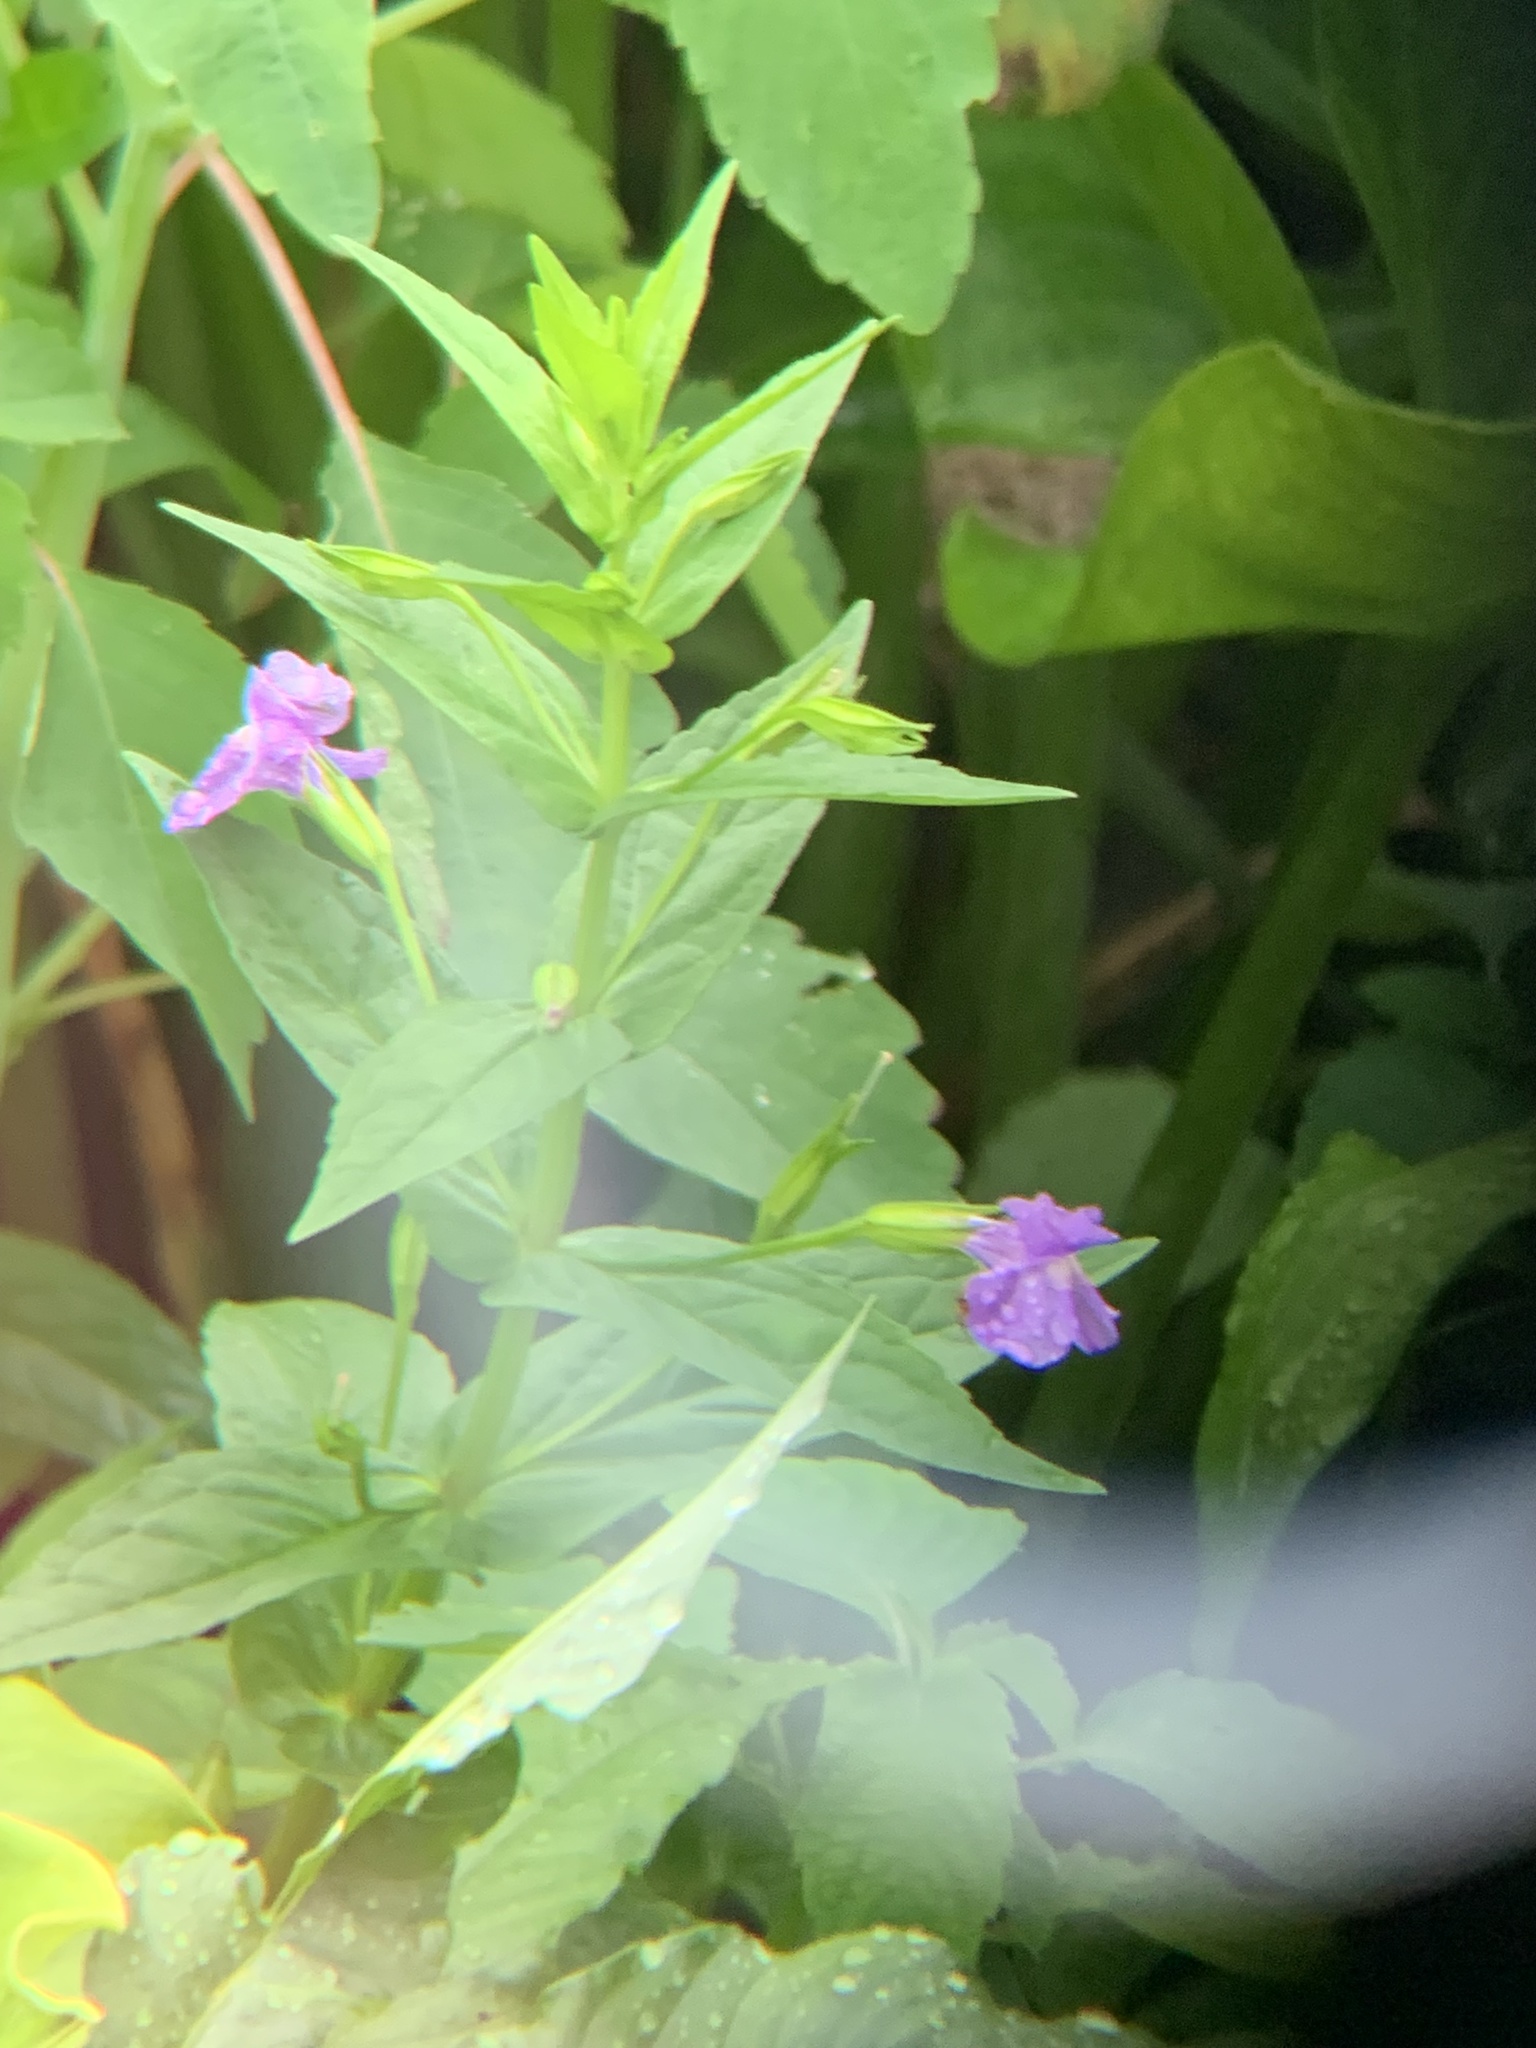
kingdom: Plantae
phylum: Tracheophyta
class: Magnoliopsida
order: Lamiales
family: Phrymaceae
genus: Mimulus
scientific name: Mimulus ringens
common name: Allegheny monkeyflower
